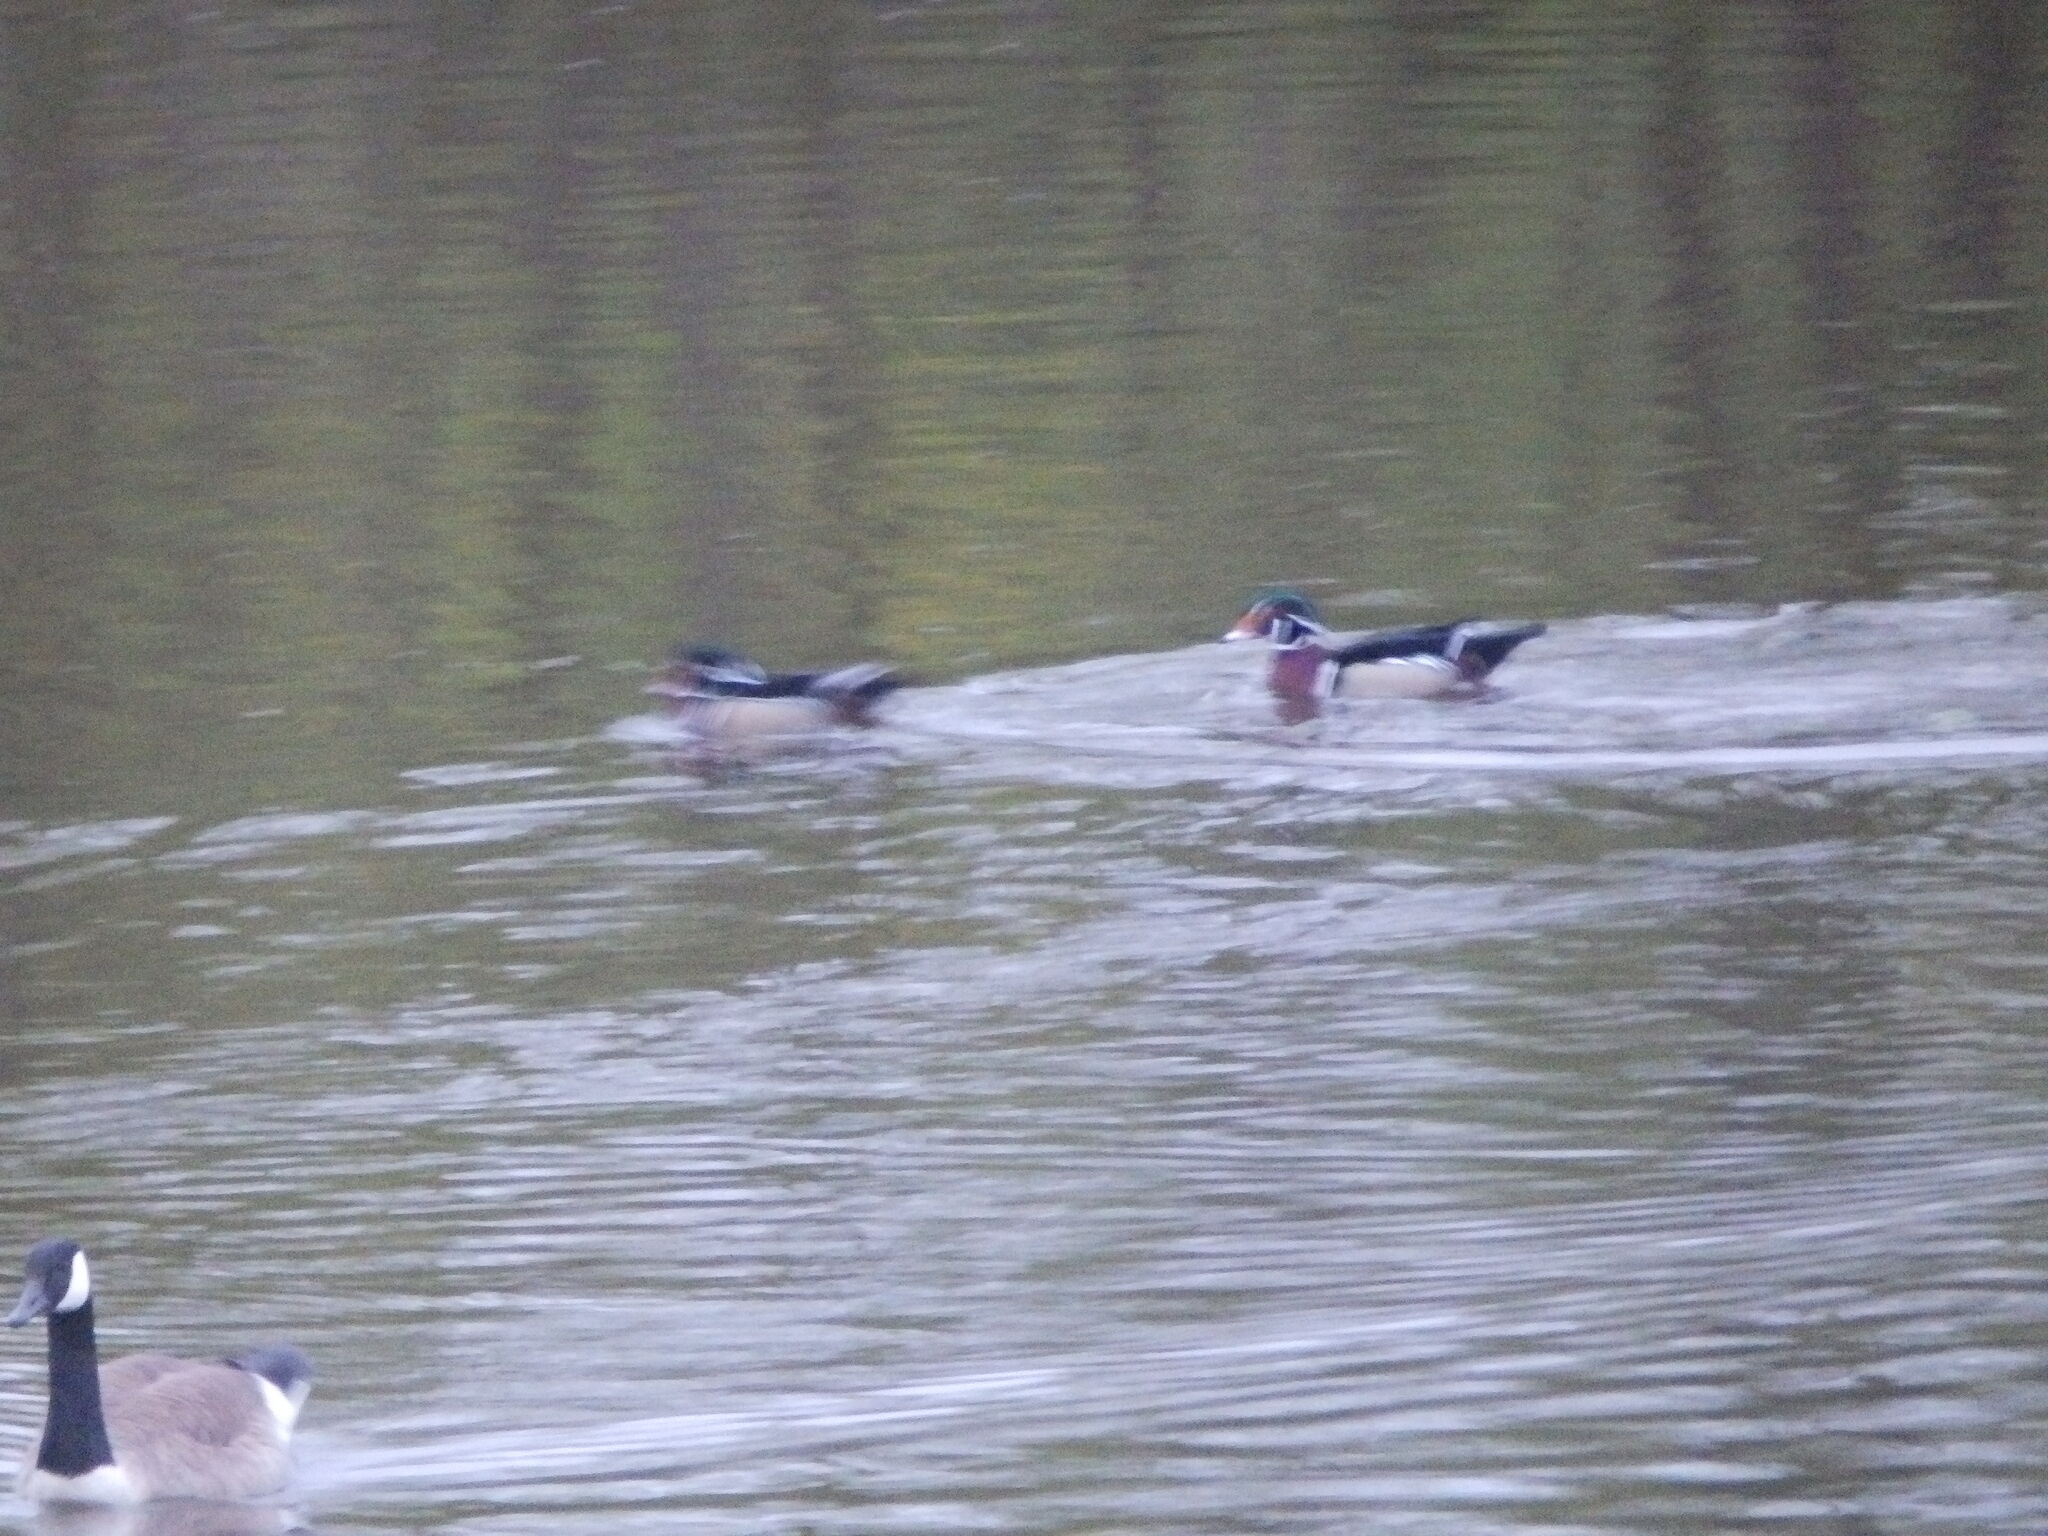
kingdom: Animalia
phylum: Chordata
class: Aves
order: Anseriformes
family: Anatidae
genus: Aix
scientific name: Aix sponsa
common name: Wood duck
